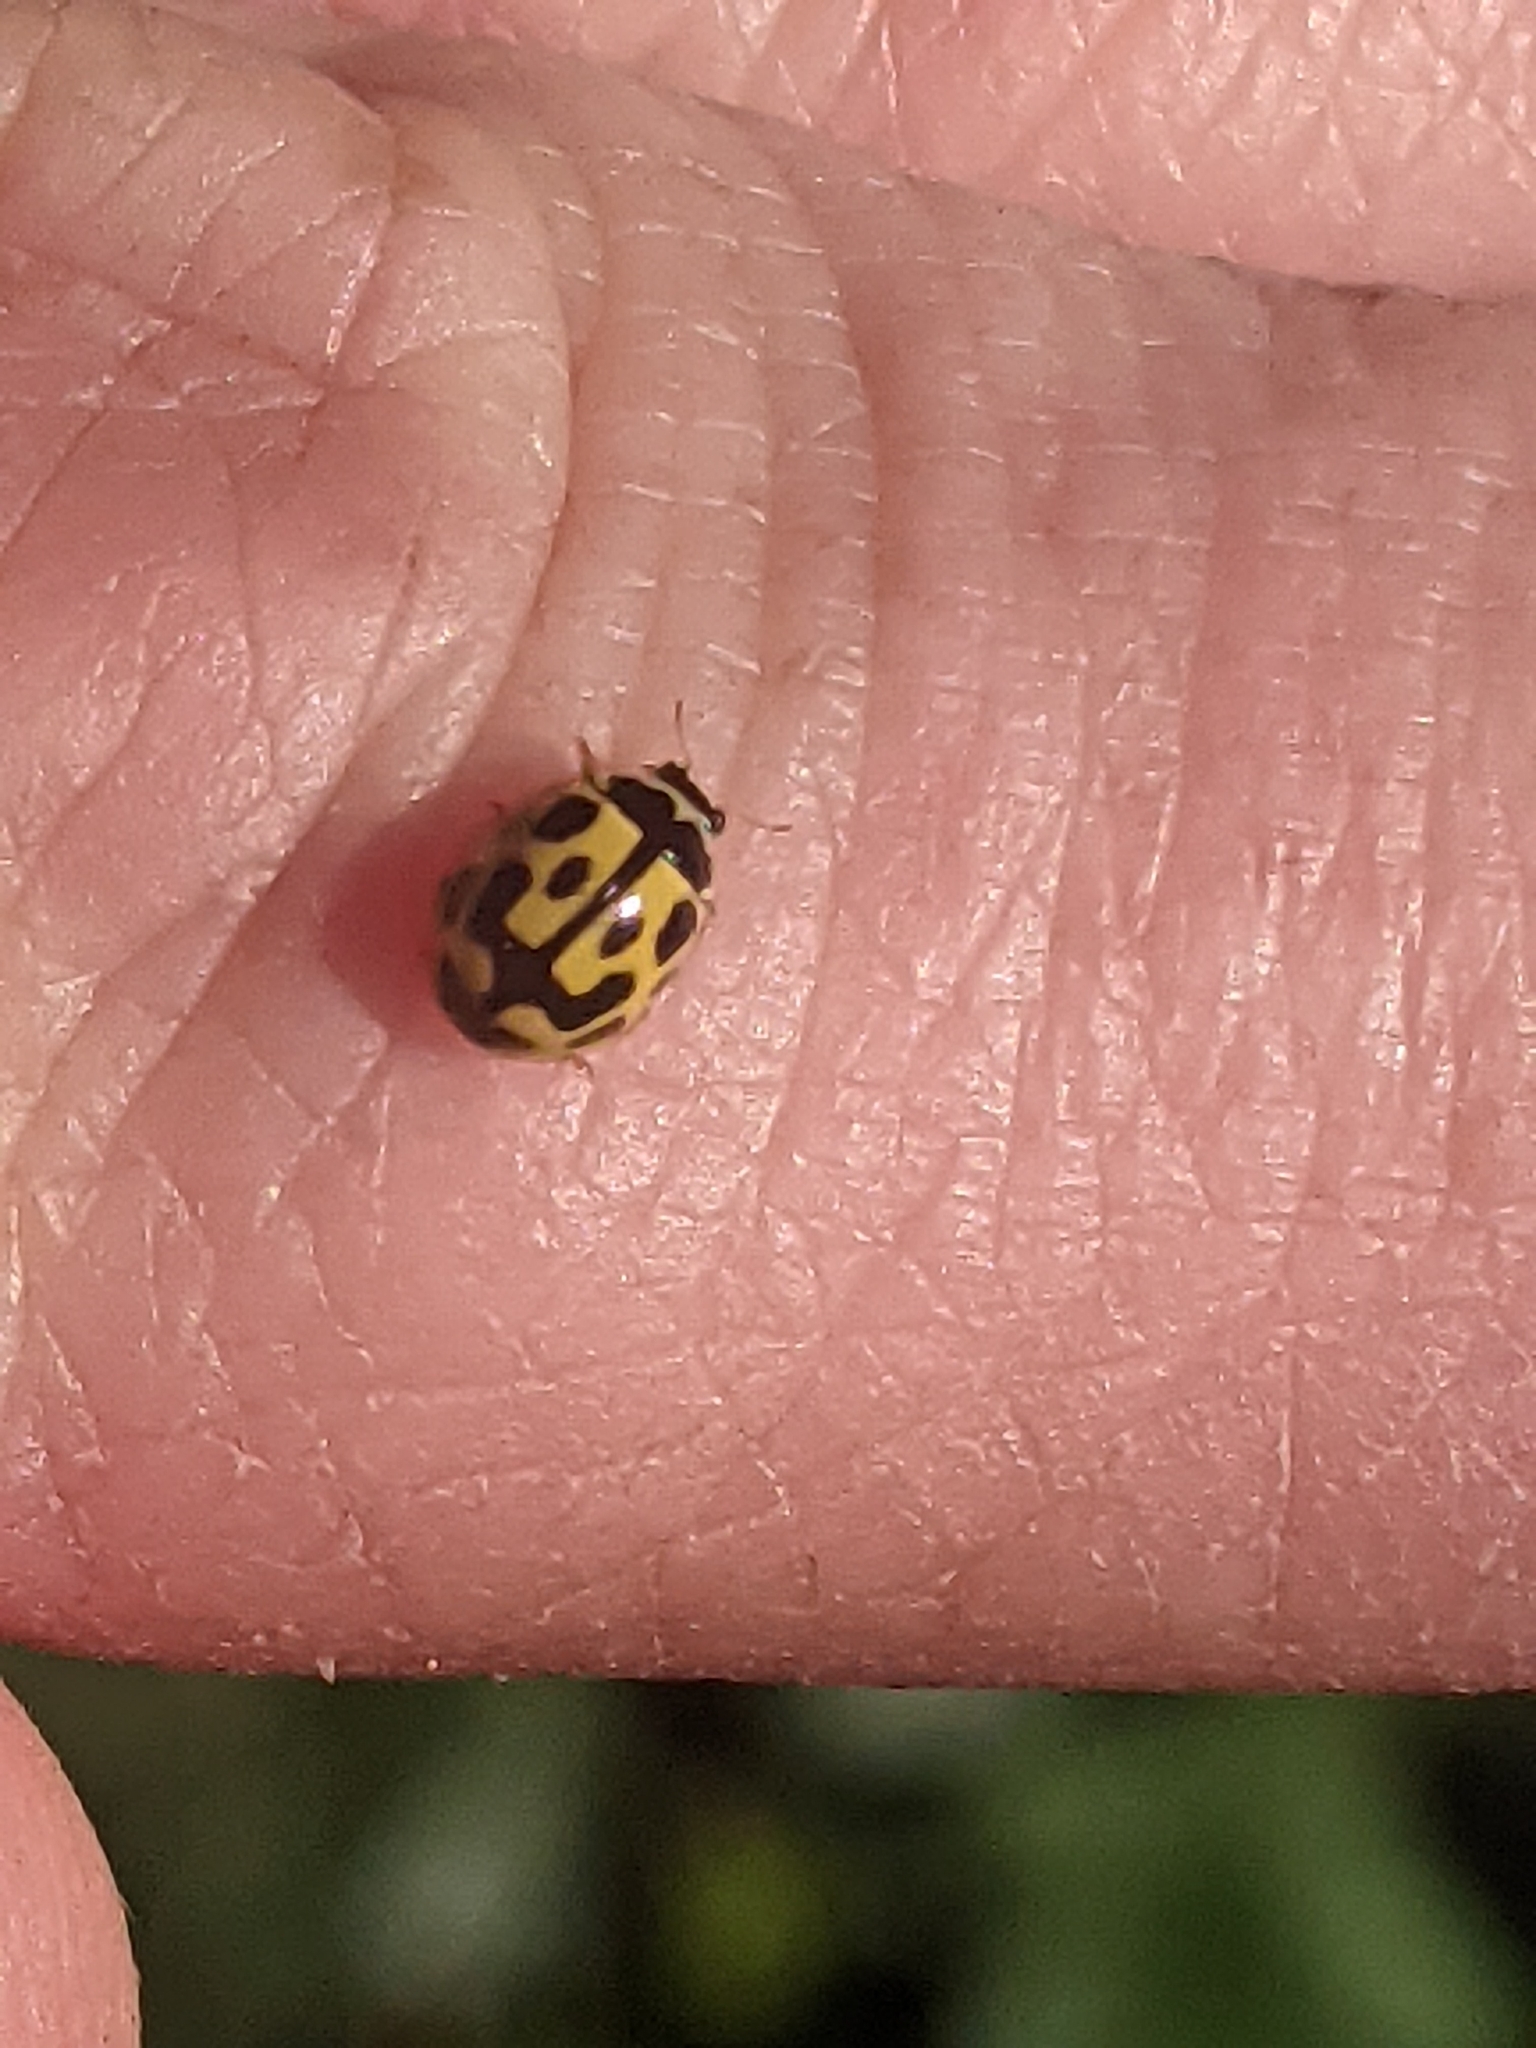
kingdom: Animalia
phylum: Arthropoda
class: Insecta
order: Coleoptera
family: Coccinellidae
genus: Propylaea
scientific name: Propylaea quatuordecimpunctata
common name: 14-spotted ladybird beetle
